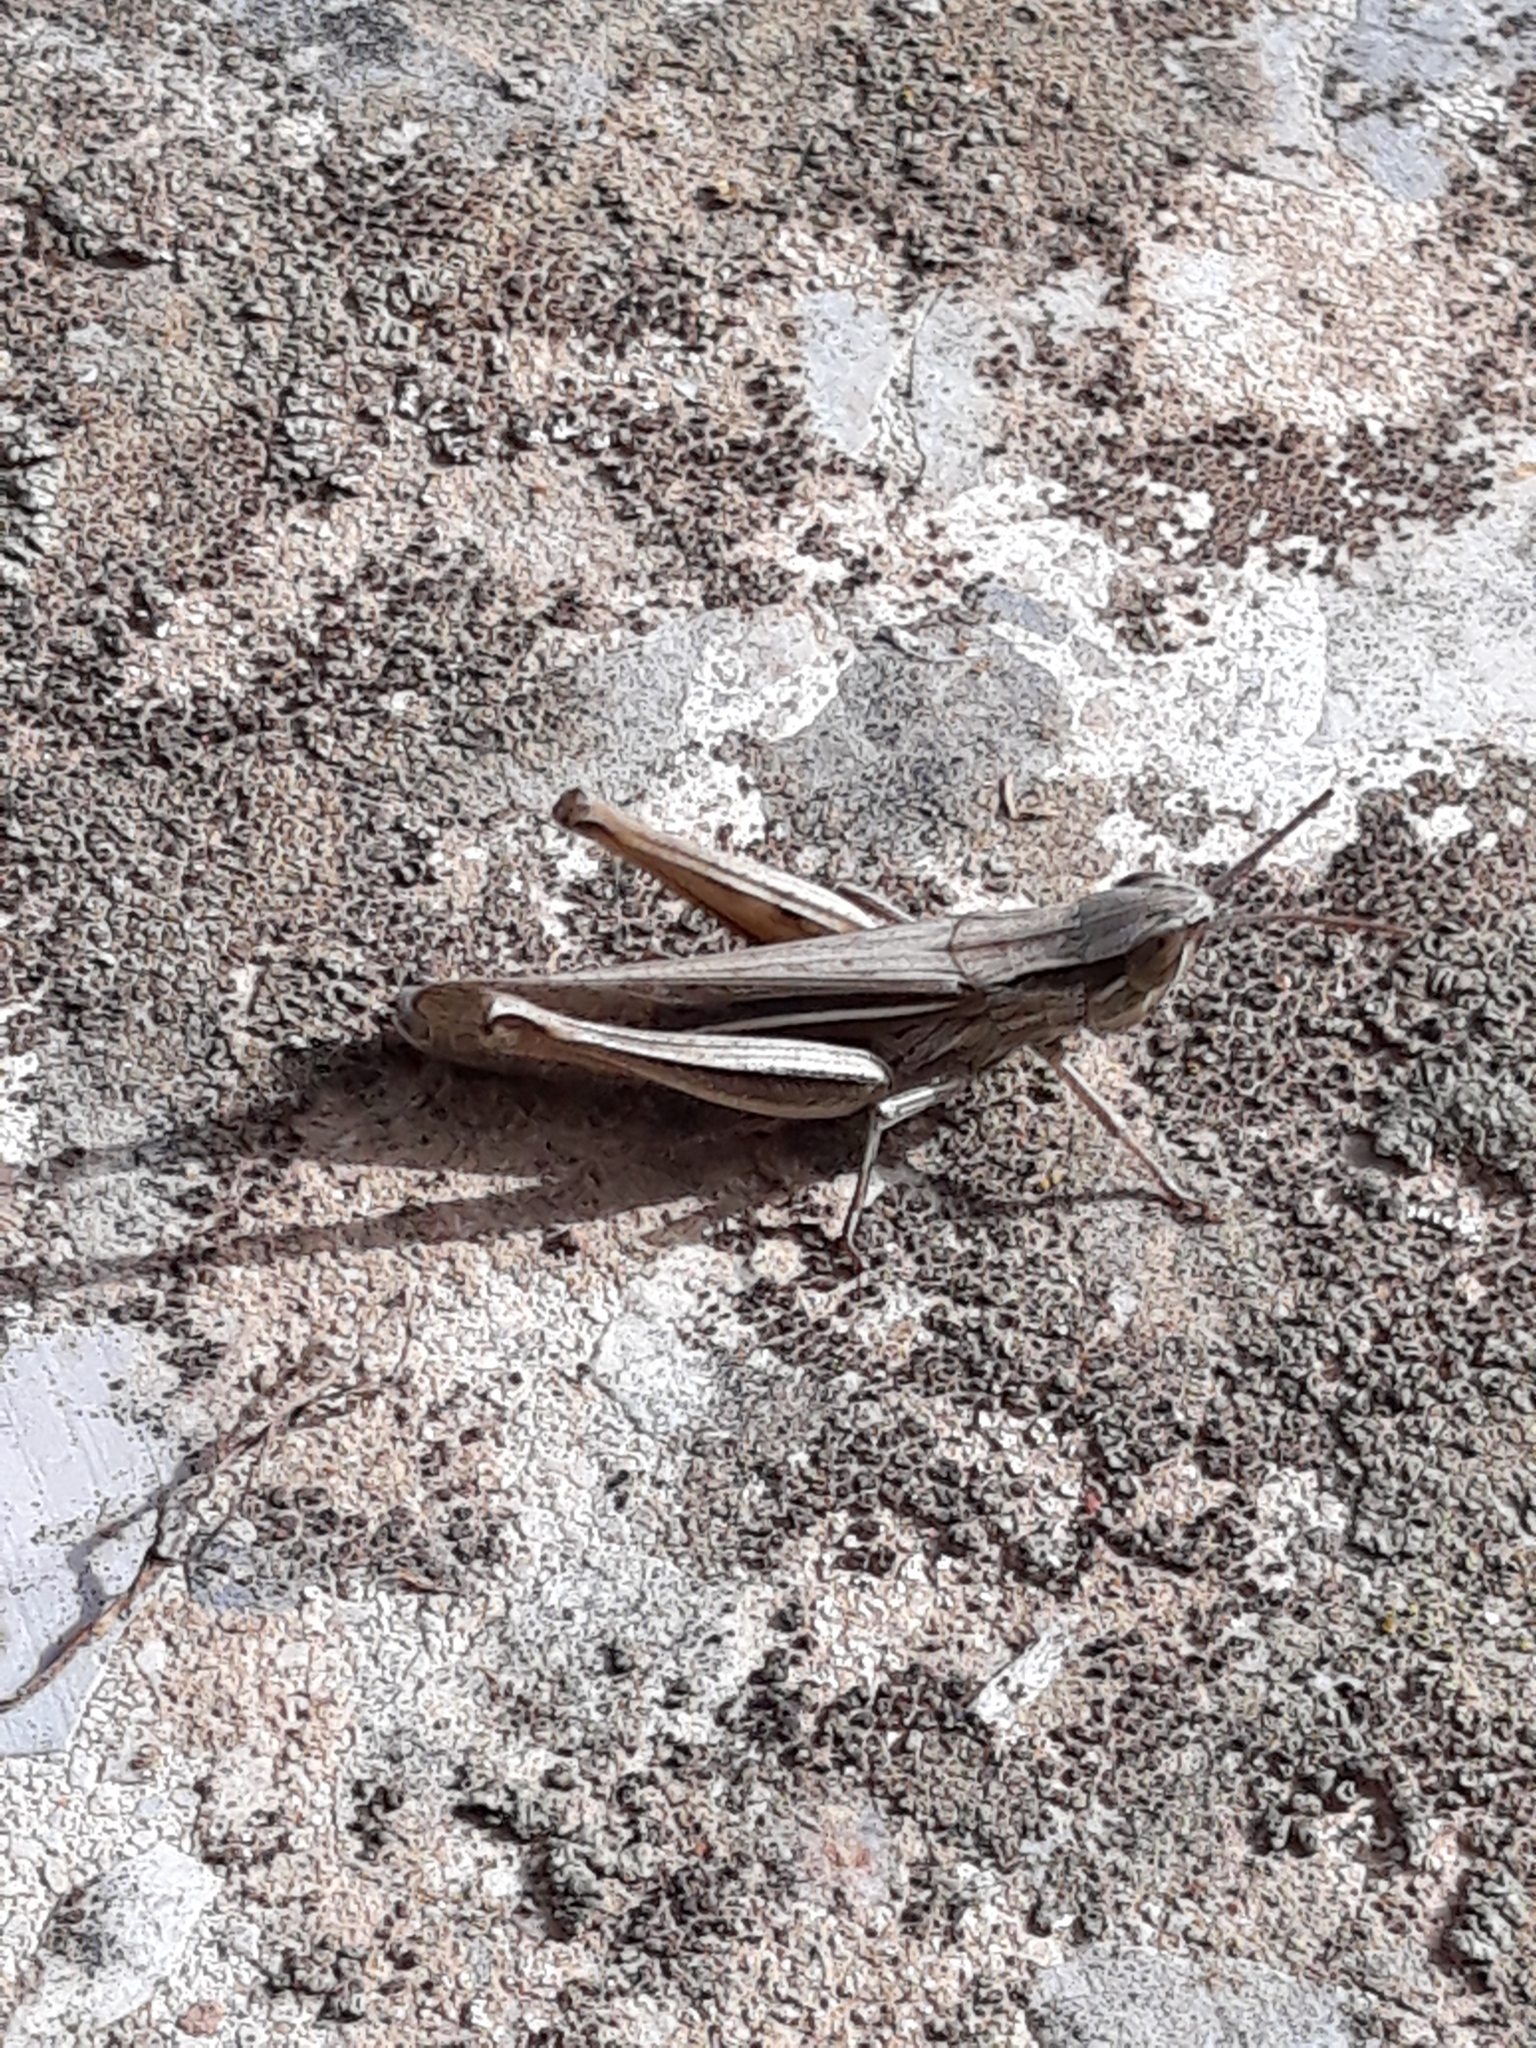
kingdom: Animalia
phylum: Arthropoda
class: Insecta
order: Orthoptera
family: Acrididae
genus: Euchorthippus
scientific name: Euchorthippus albolineatus
